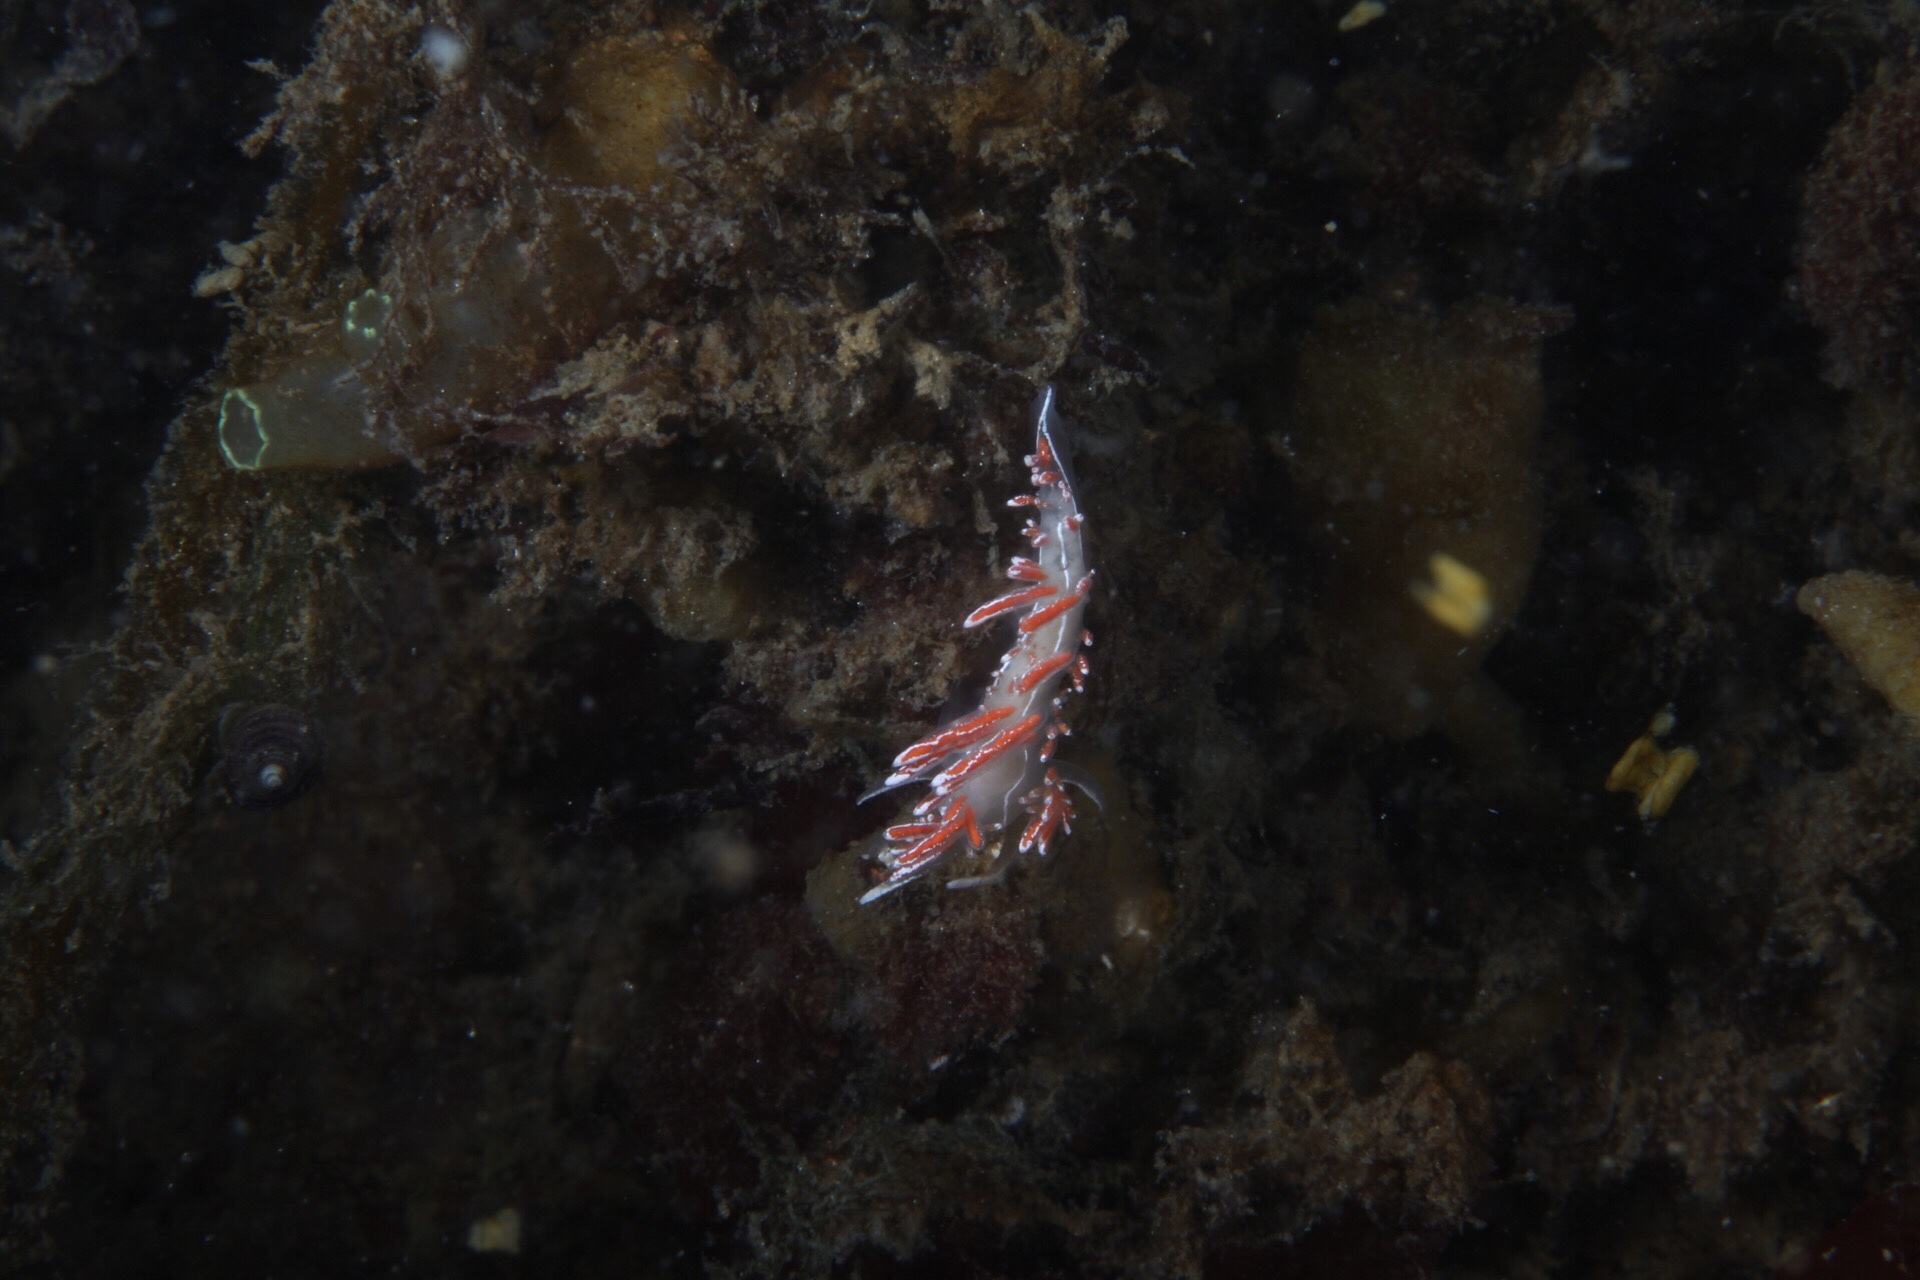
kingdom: Animalia
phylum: Mollusca
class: Gastropoda
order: Nudibranchia
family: Coryphellidae
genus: Coryphella
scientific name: Coryphella lineata
